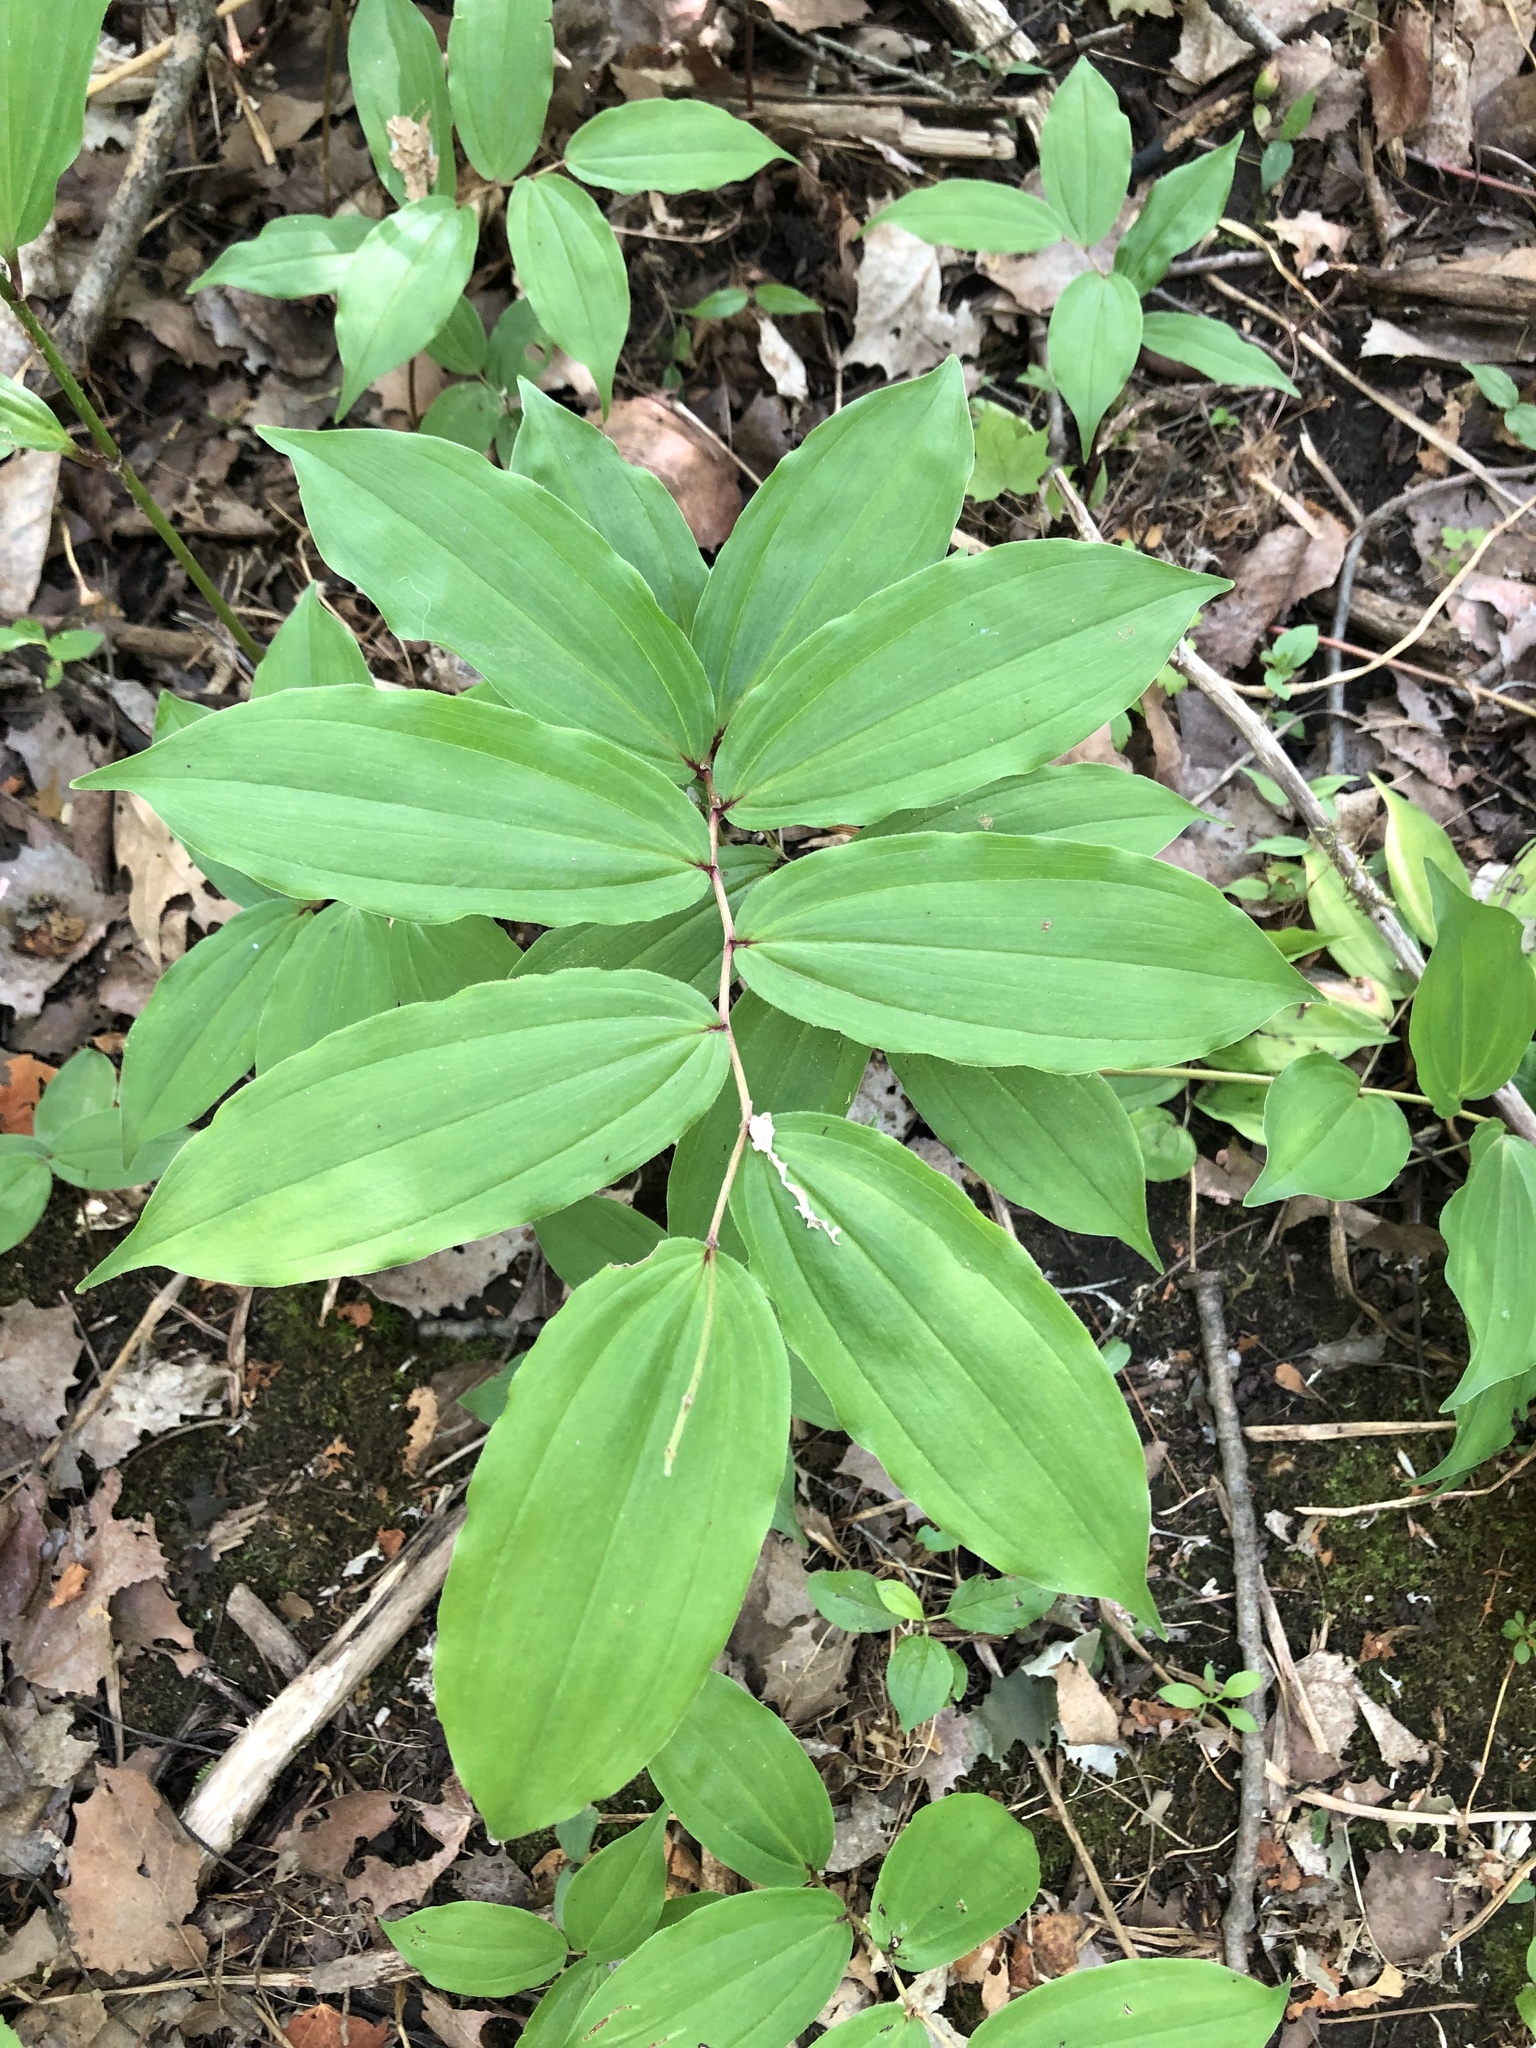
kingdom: Plantae
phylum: Tracheophyta
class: Liliopsida
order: Asparagales
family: Asparagaceae
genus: Maianthemum
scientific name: Maianthemum racemosum
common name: False spikenard
